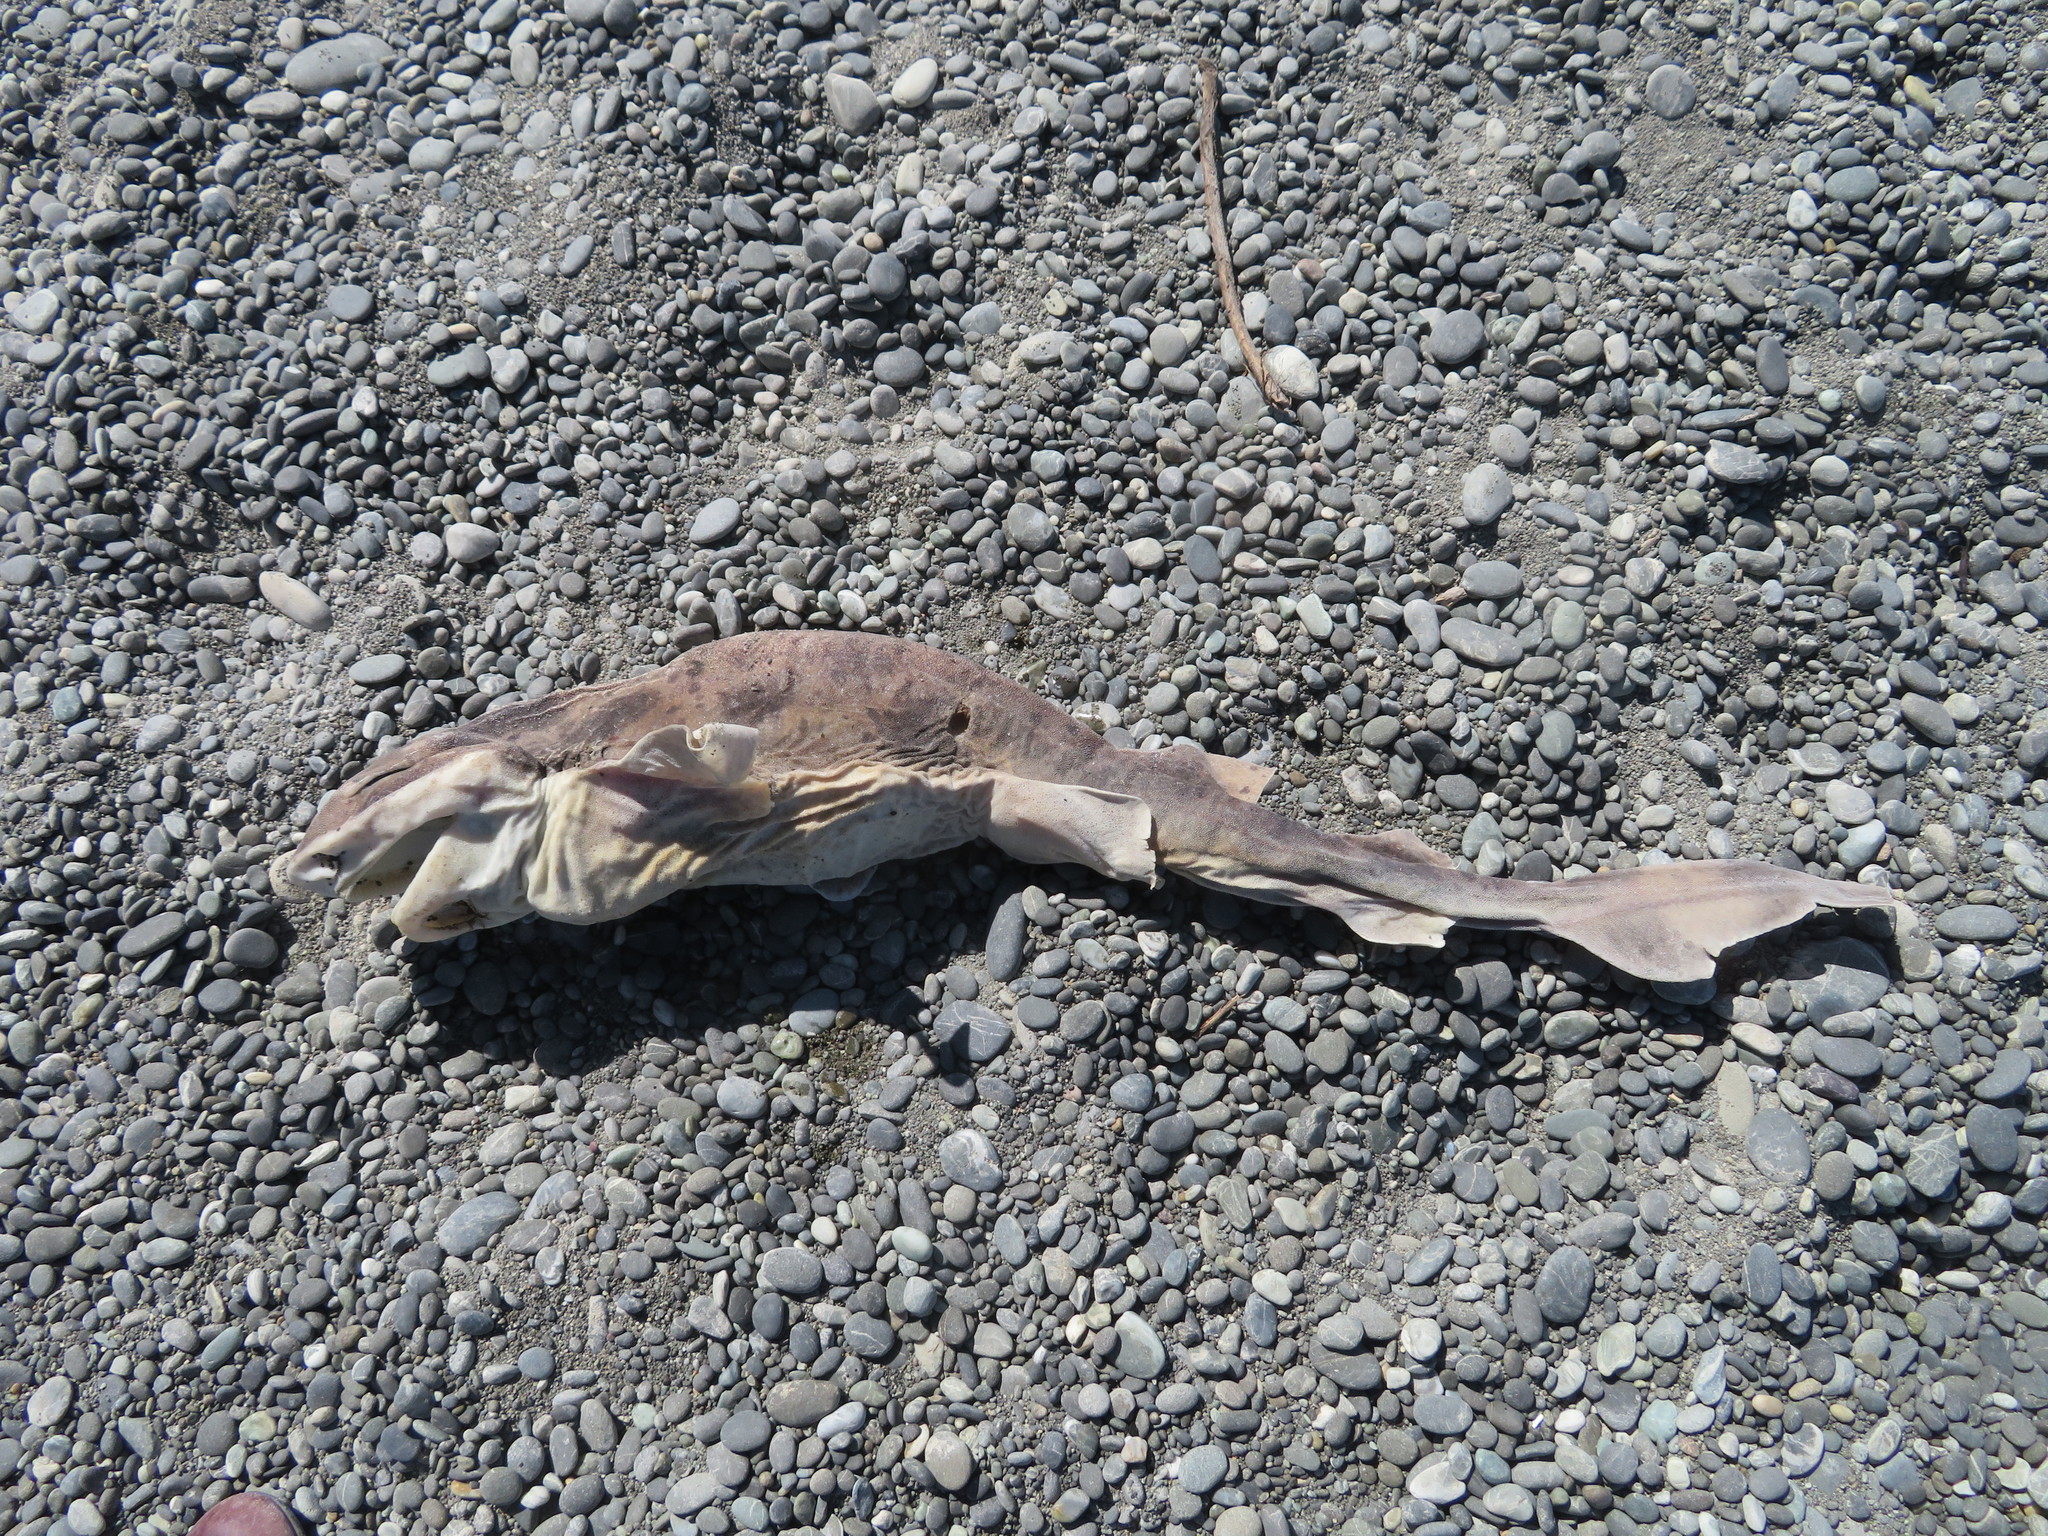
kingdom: Animalia
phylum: Chordata
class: Elasmobranchii
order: Carcharhiniformes
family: Scyliorhinidae
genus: Cephaloscyllium
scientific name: Cephaloscyllium isabellum
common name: Carpet shark
